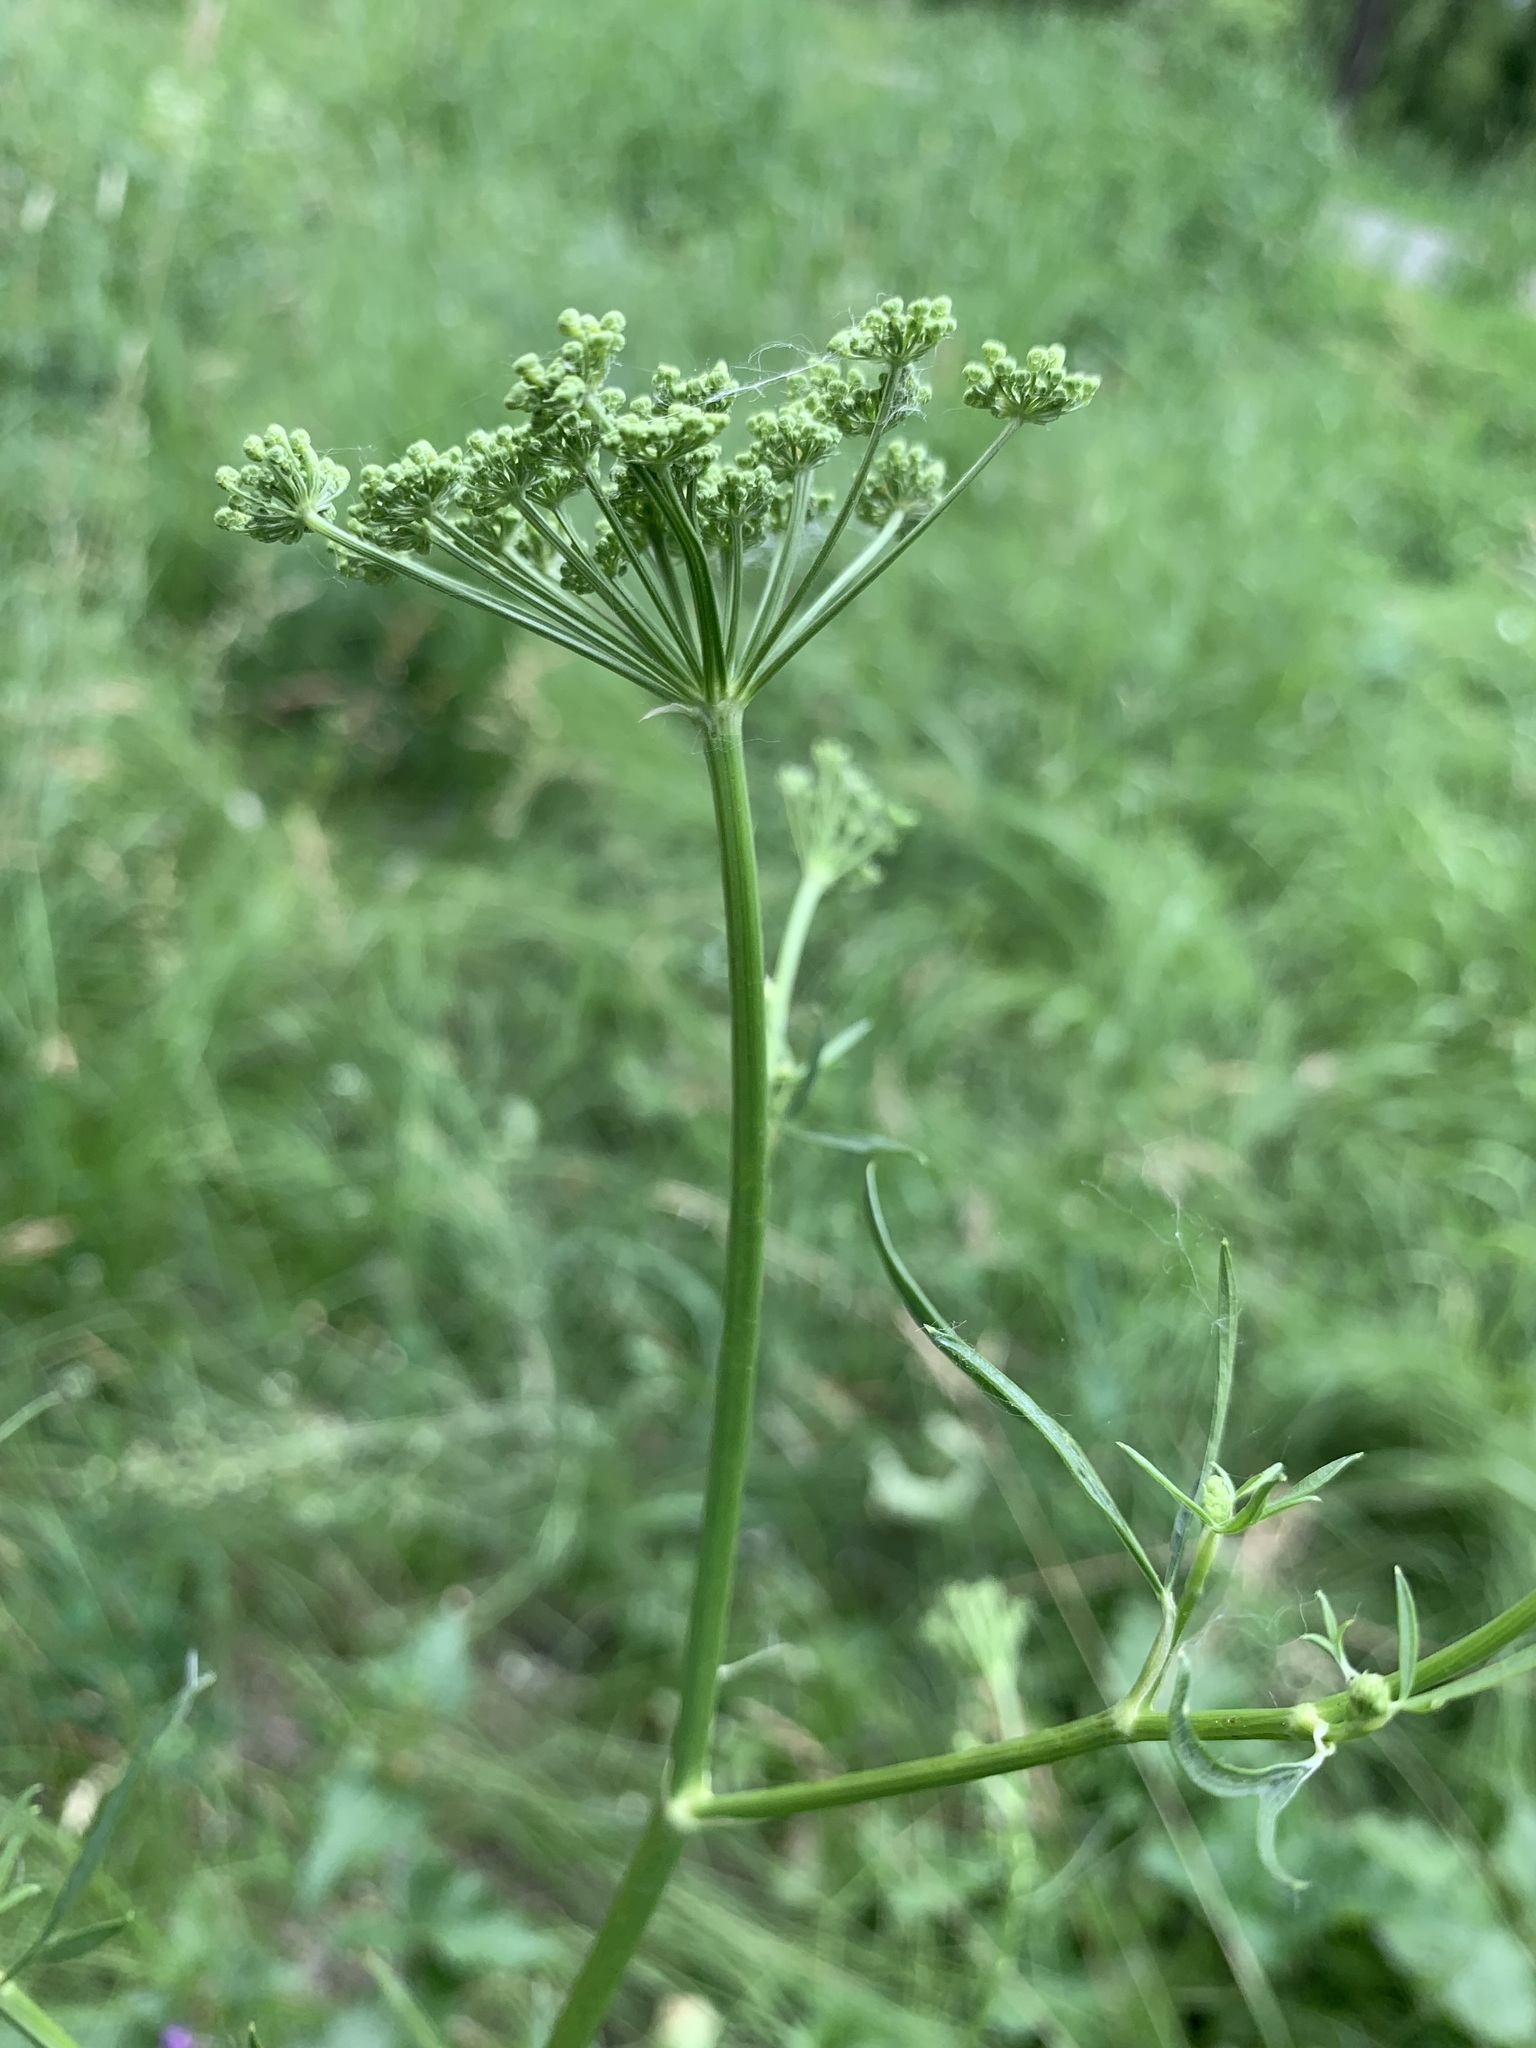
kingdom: Plantae
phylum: Tracheophyta
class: Magnoliopsida
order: Apiales
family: Apiaceae
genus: Silaum
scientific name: Silaum silaus
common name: Pepper-saxifrage
